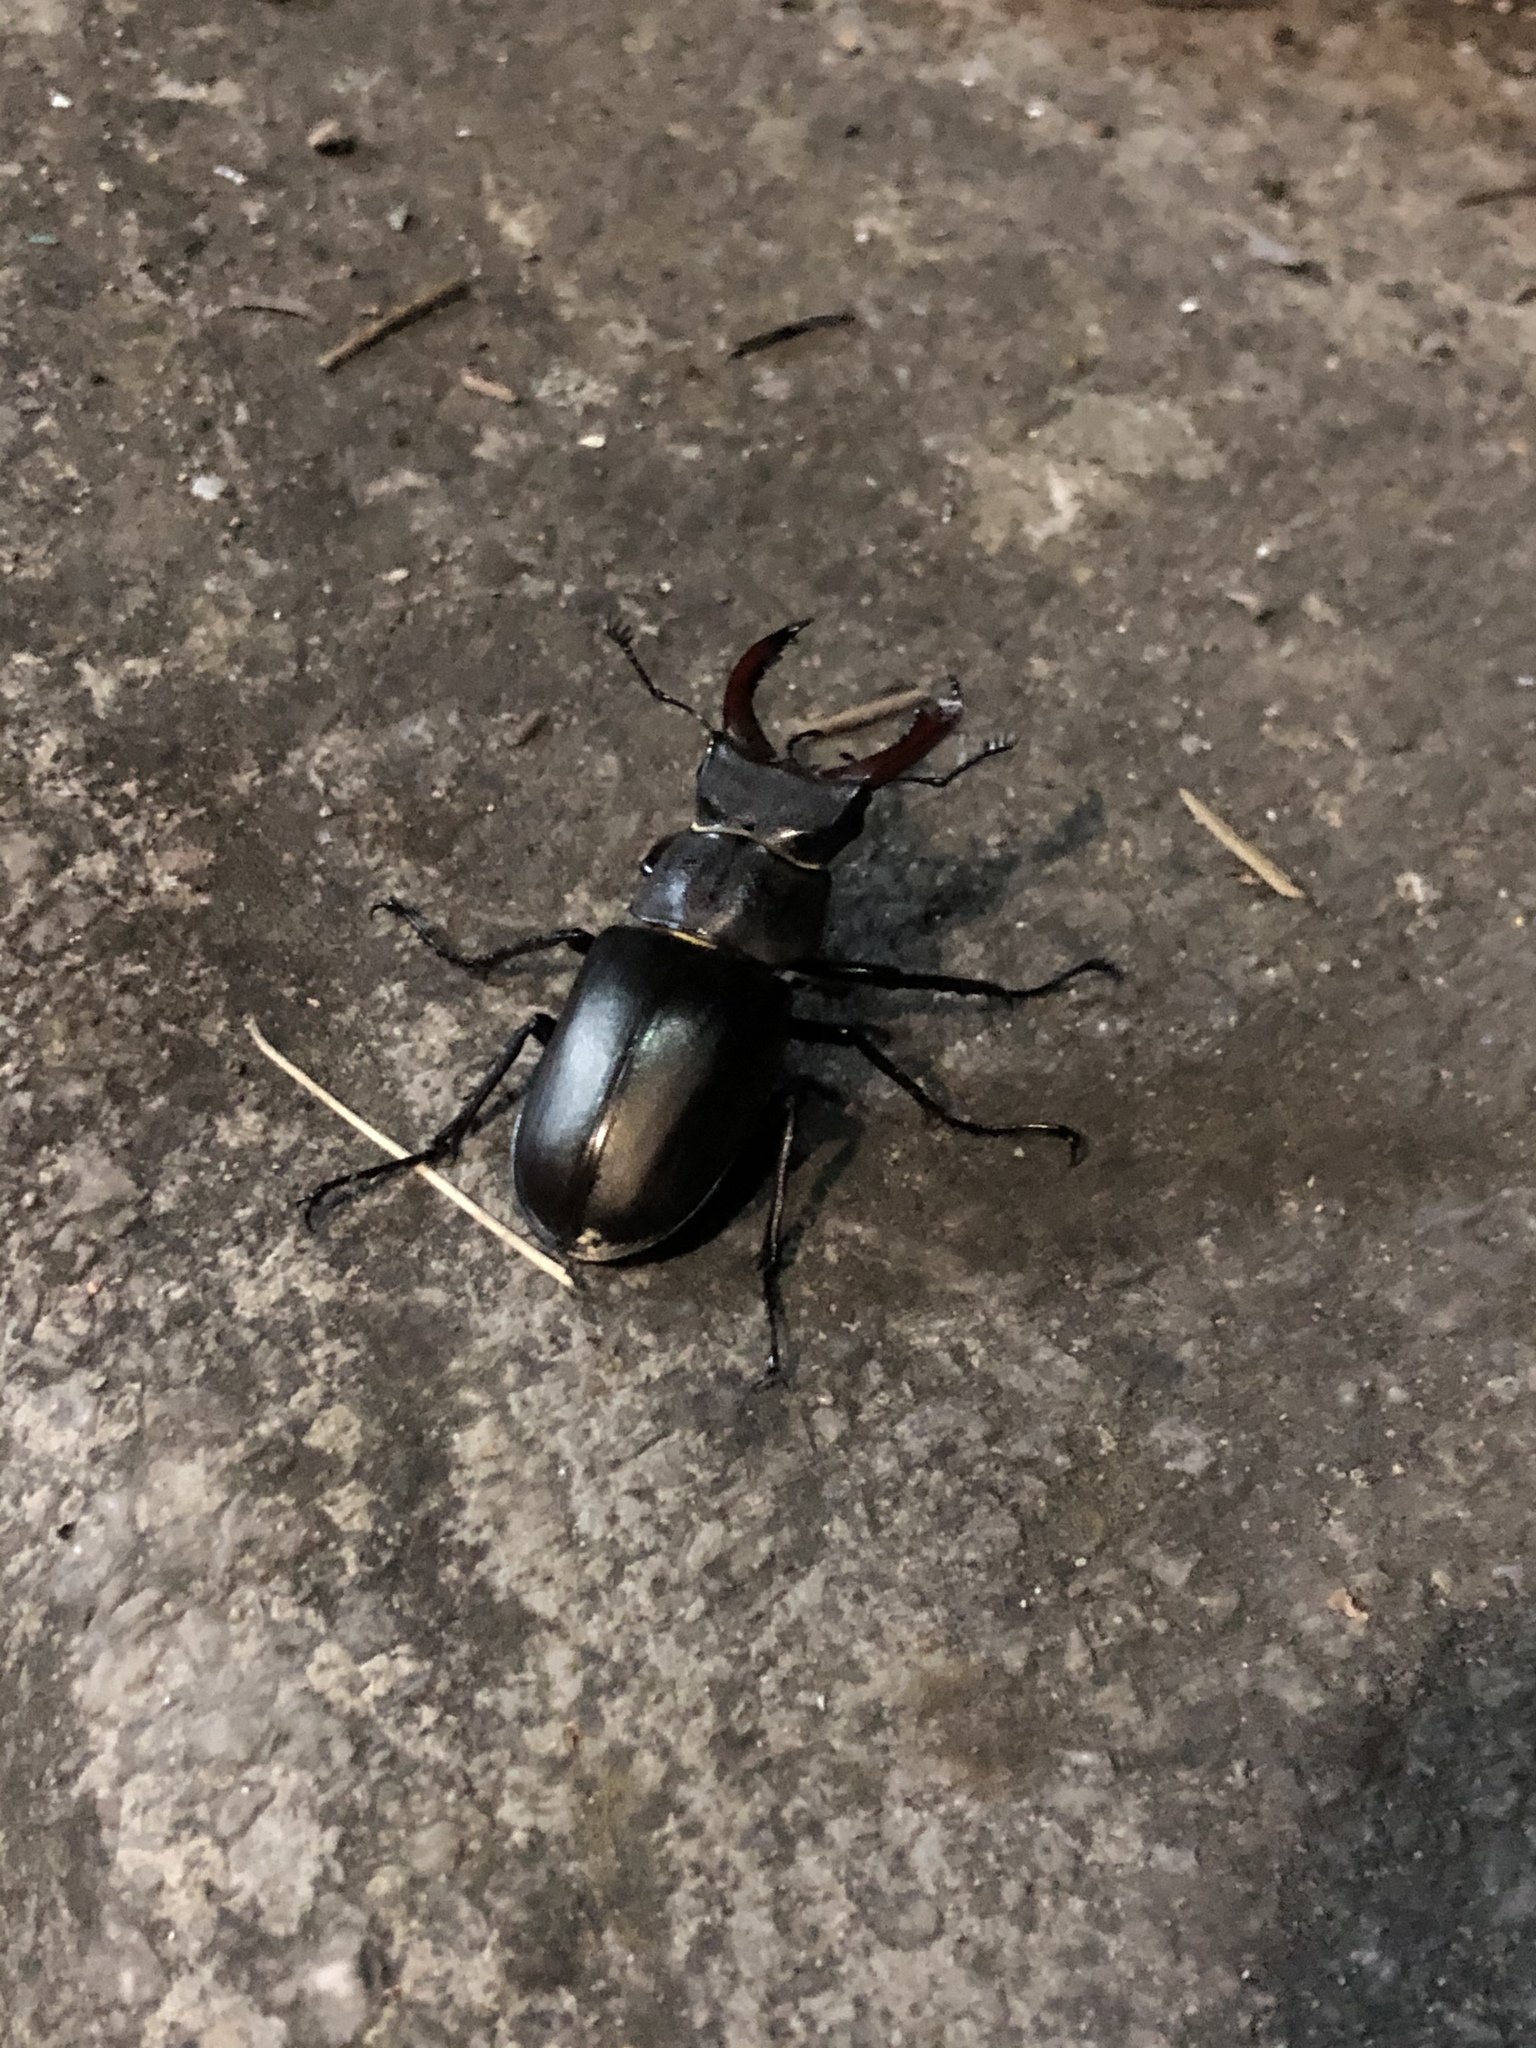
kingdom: Animalia
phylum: Arthropoda
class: Insecta
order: Coleoptera
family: Lucanidae
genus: Lucanus
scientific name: Lucanus cervus
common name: Stag beetle
